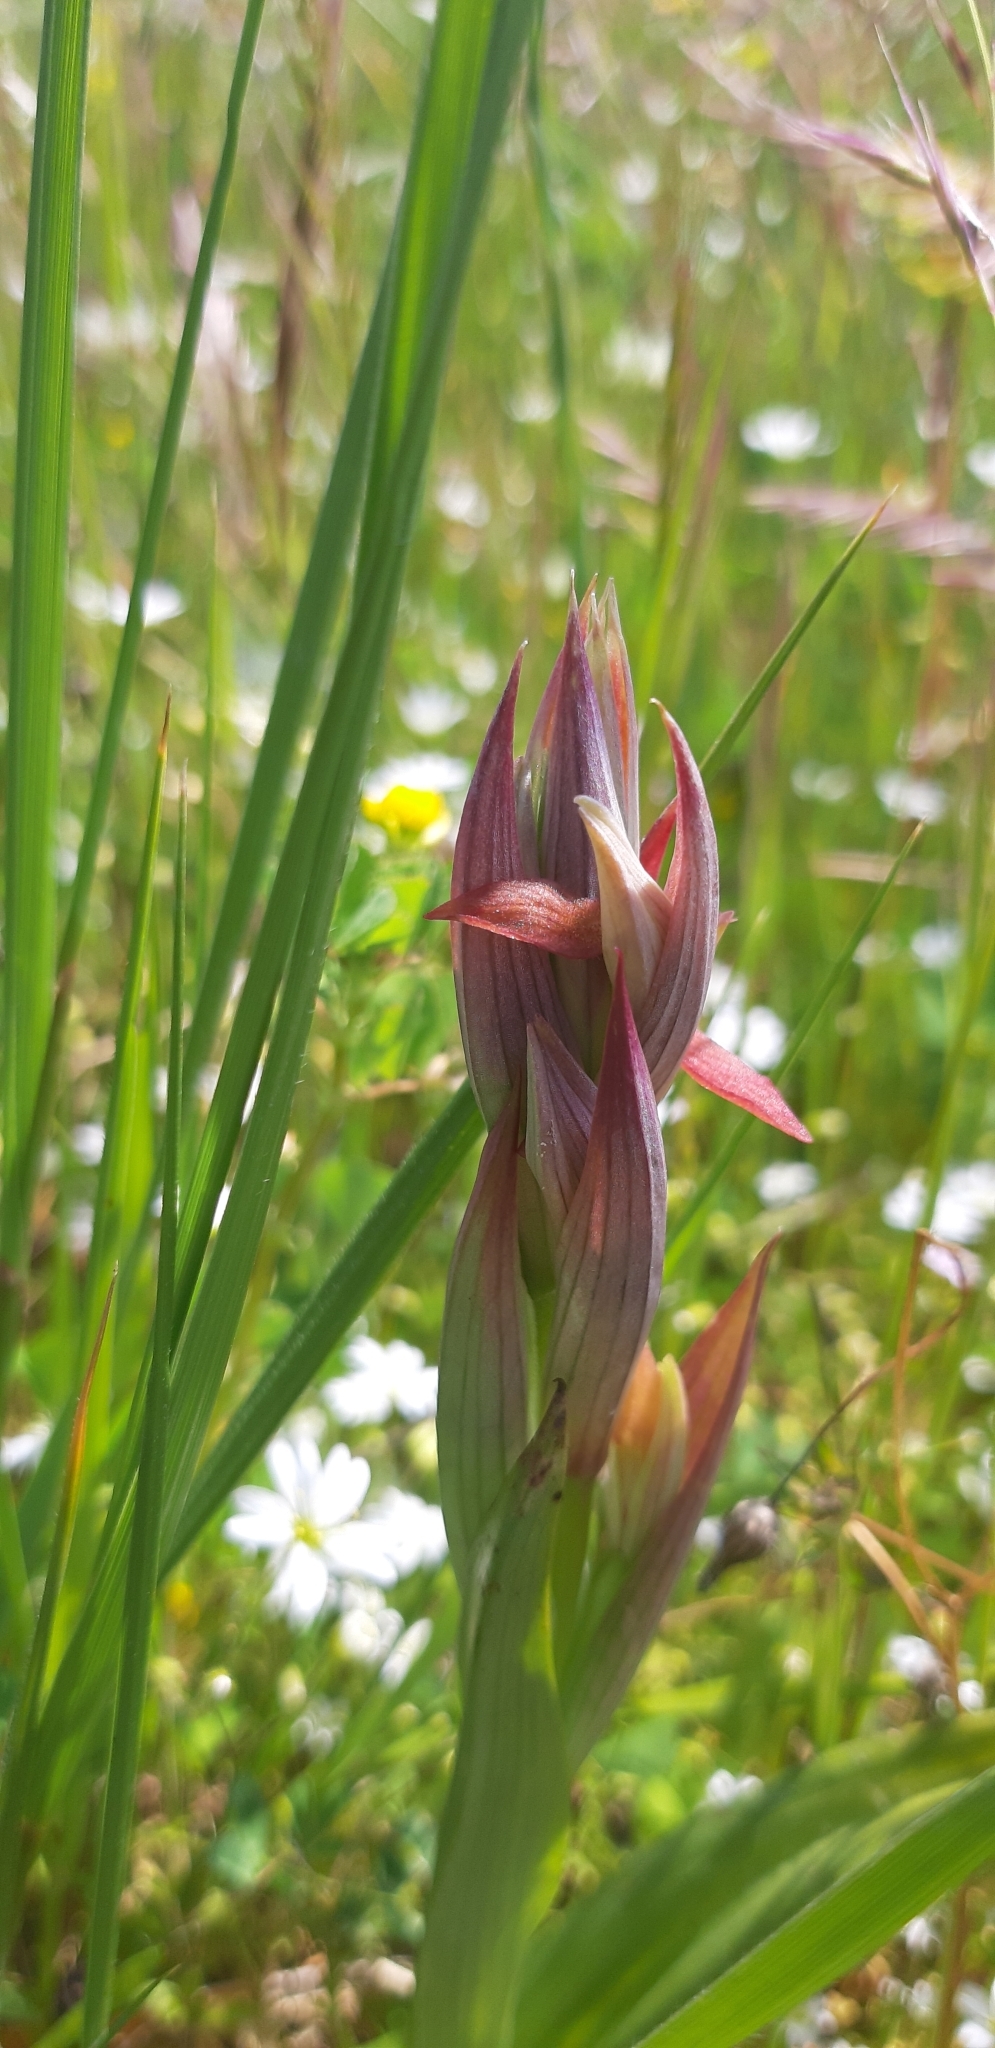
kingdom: Plantae
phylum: Tracheophyta
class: Liliopsida
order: Asparagales
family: Orchidaceae
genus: Serapias
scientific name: Serapias parviflora
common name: Small-flowered tongue-orchid
